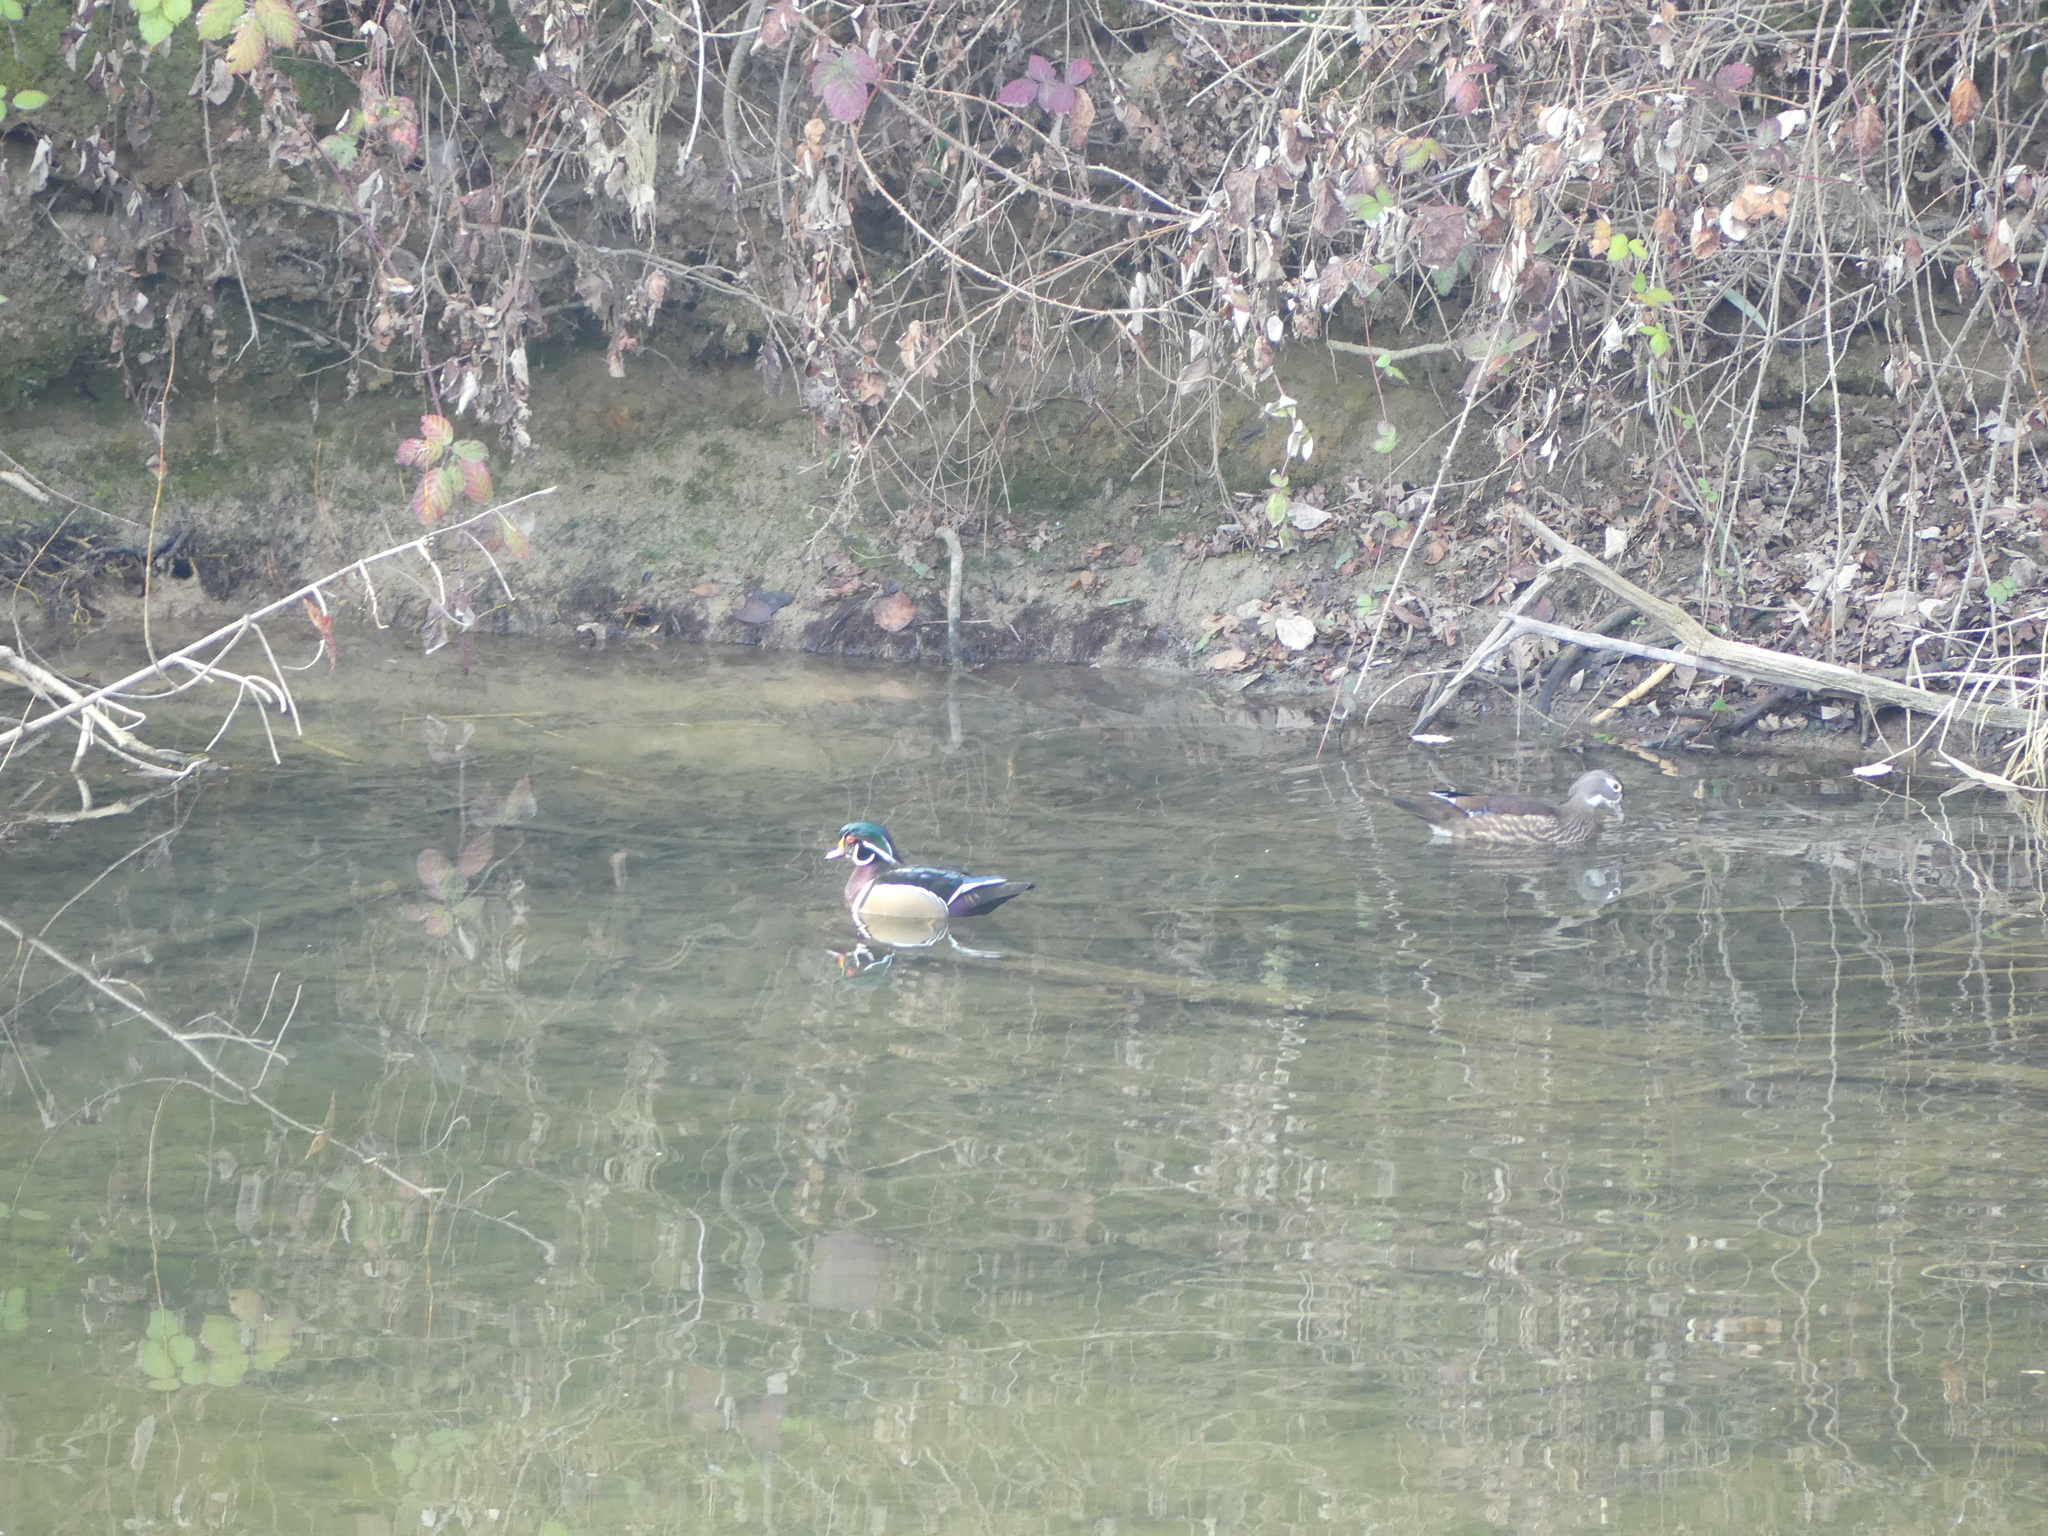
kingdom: Animalia
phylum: Chordata
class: Aves
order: Anseriformes
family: Anatidae
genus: Aix
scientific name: Aix sponsa
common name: Wood duck
